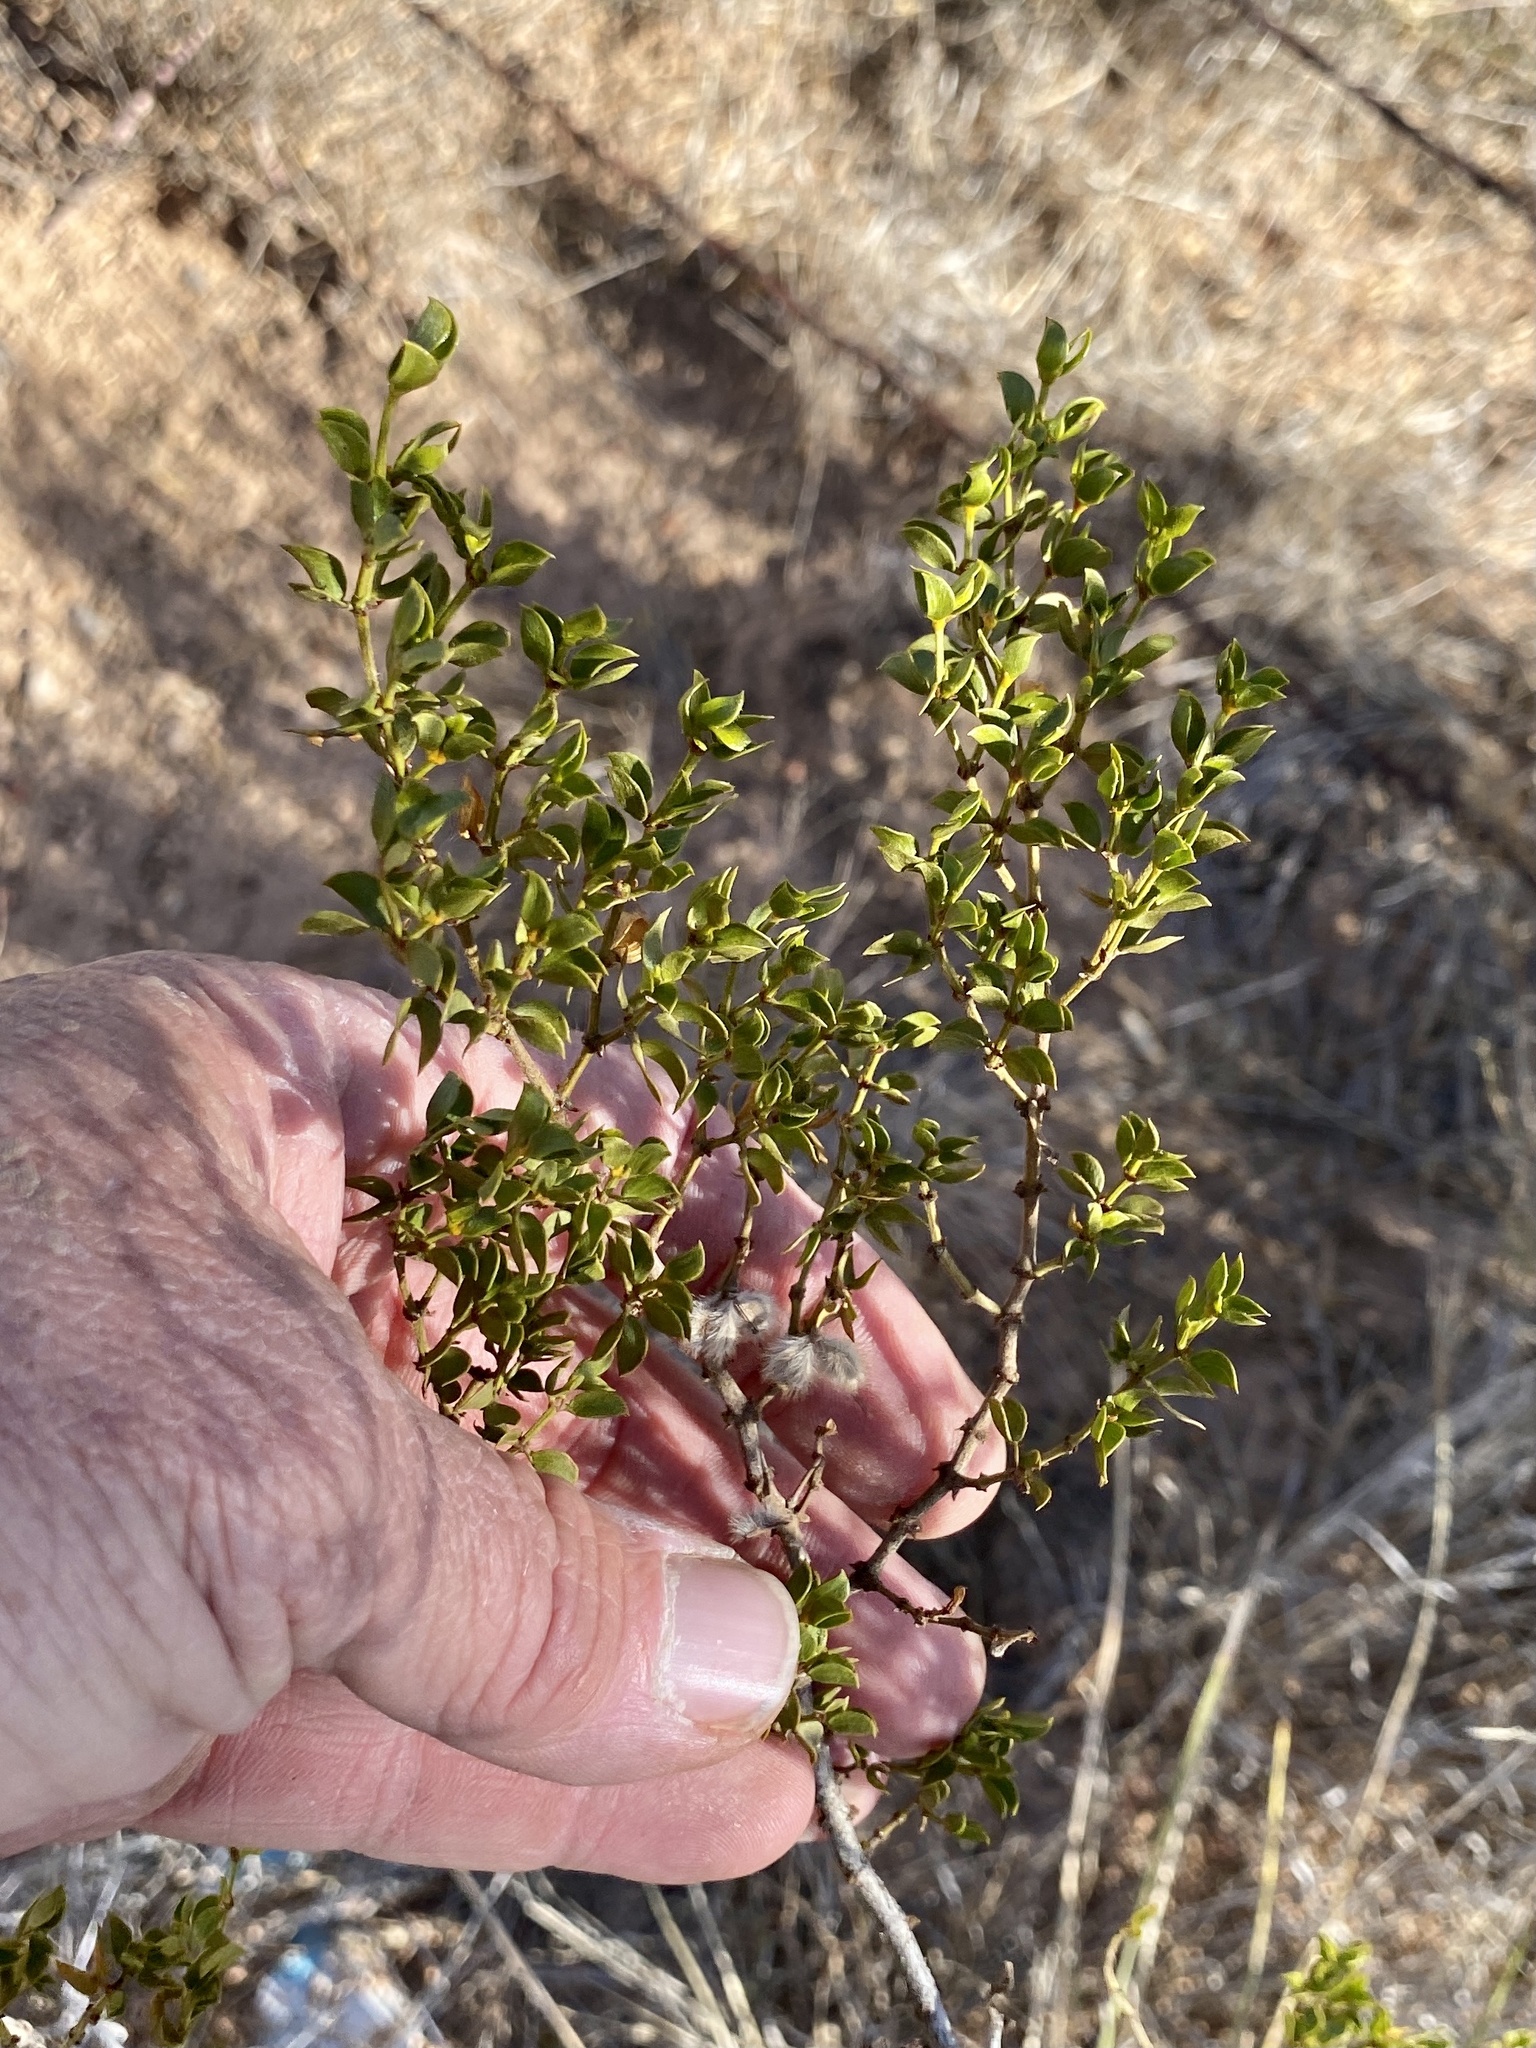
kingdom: Plantae
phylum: Tracheophyta
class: Magnoliopsida
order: Zygophyllales
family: Zygophyllaceae
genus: Larrea
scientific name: Larrea tridentata
